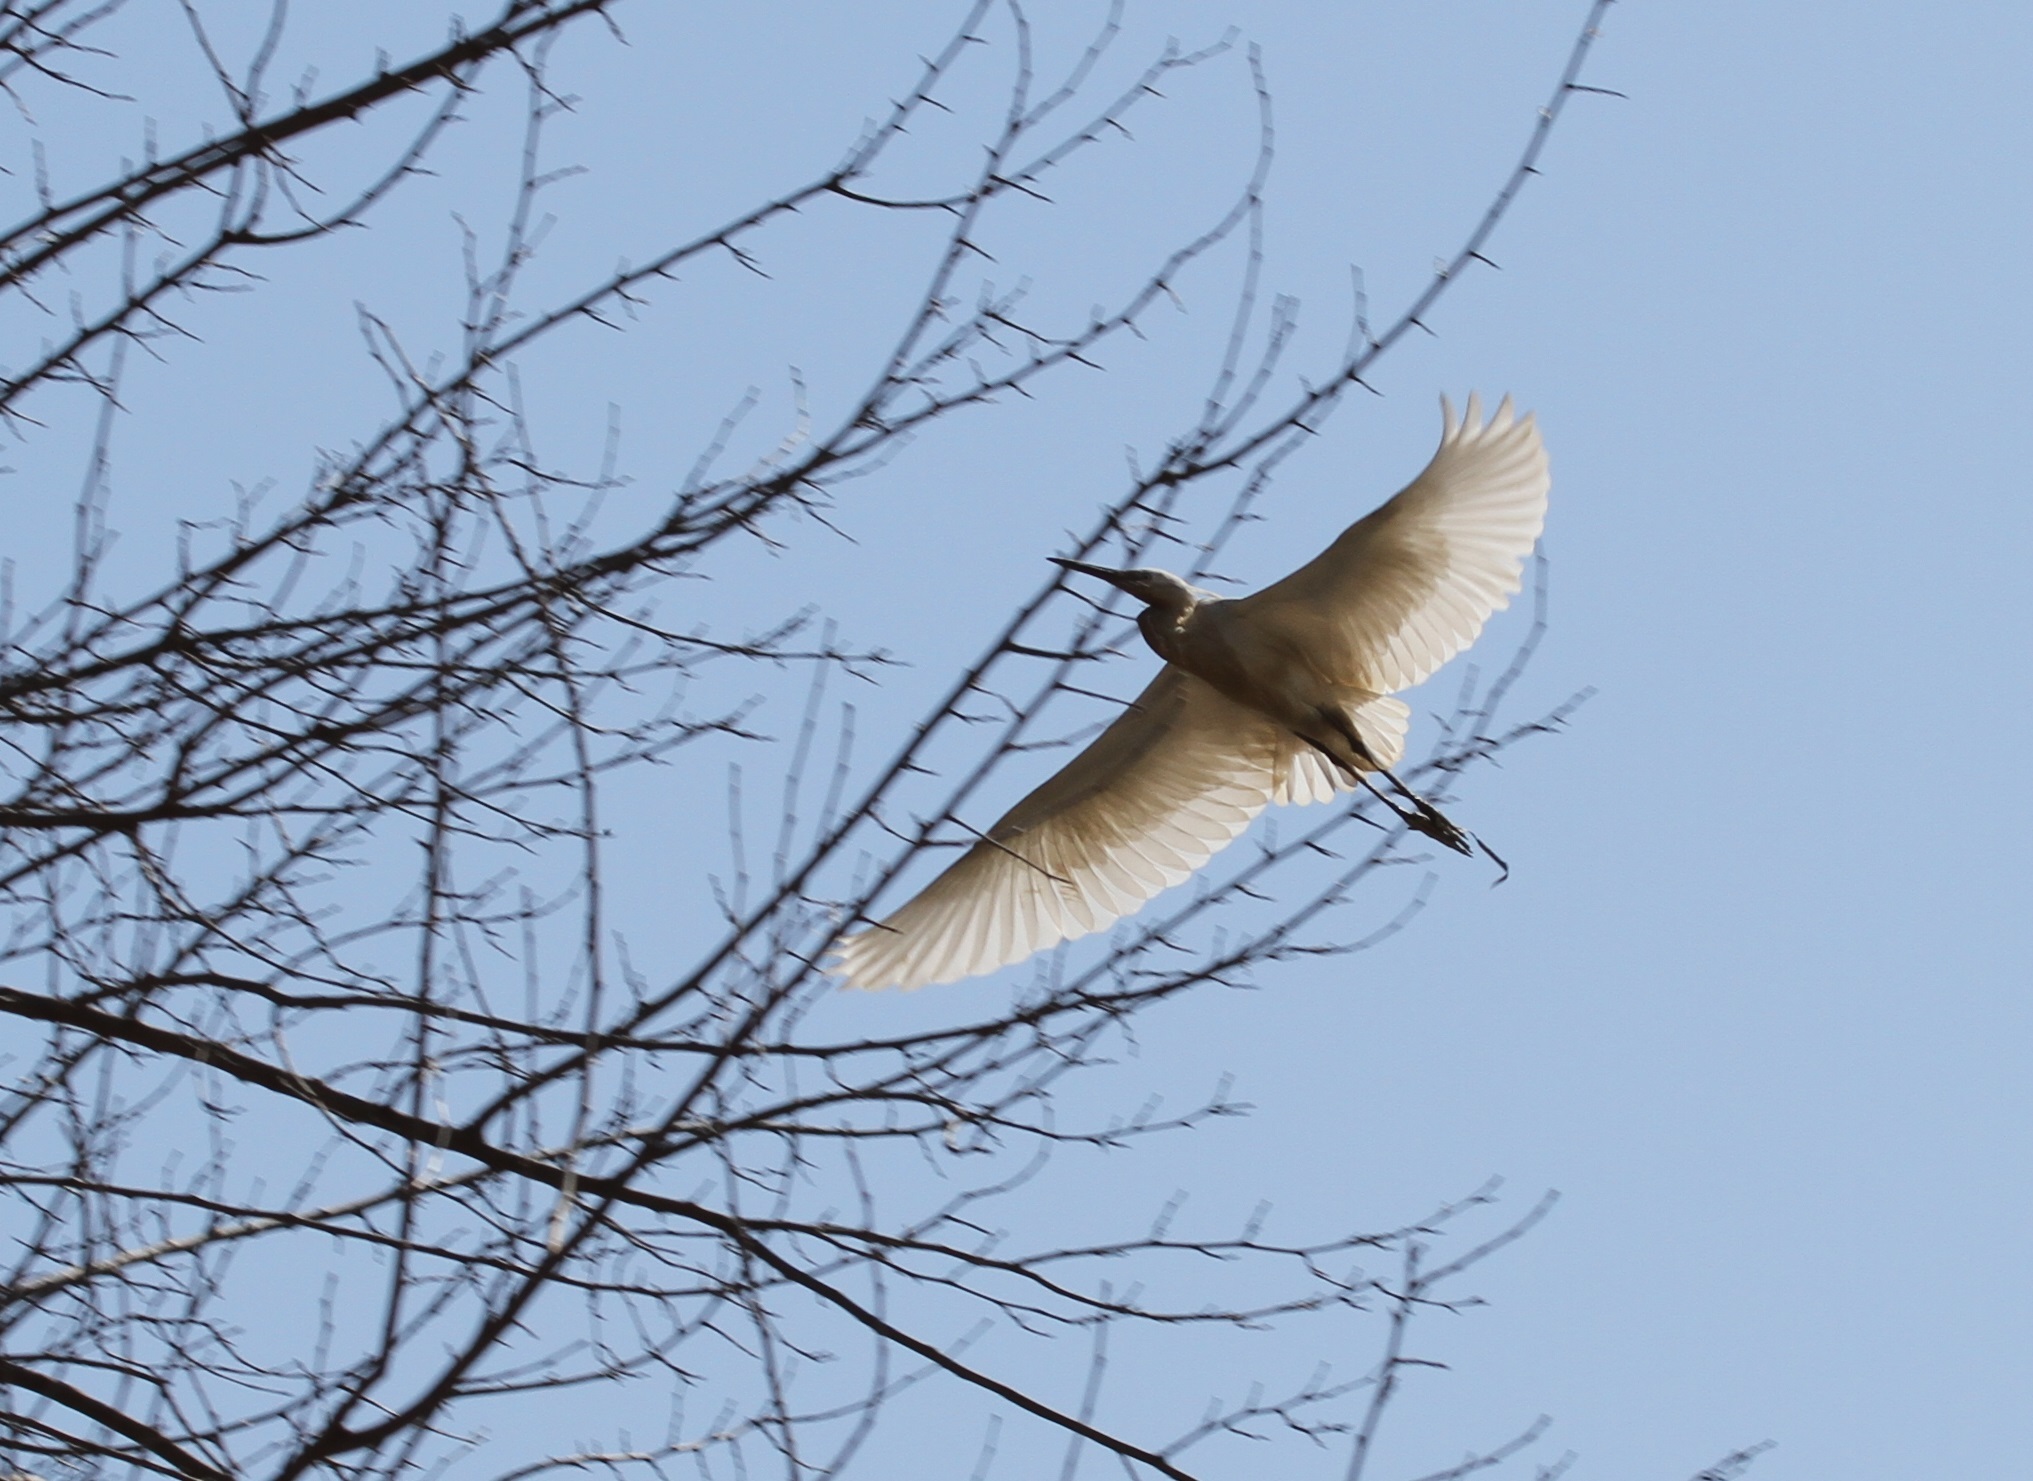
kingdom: Animalia
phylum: Chordata
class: Aves
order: Pelecaniformes
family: Ardeidae
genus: Ardea
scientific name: Ardea alba
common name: Great egret
